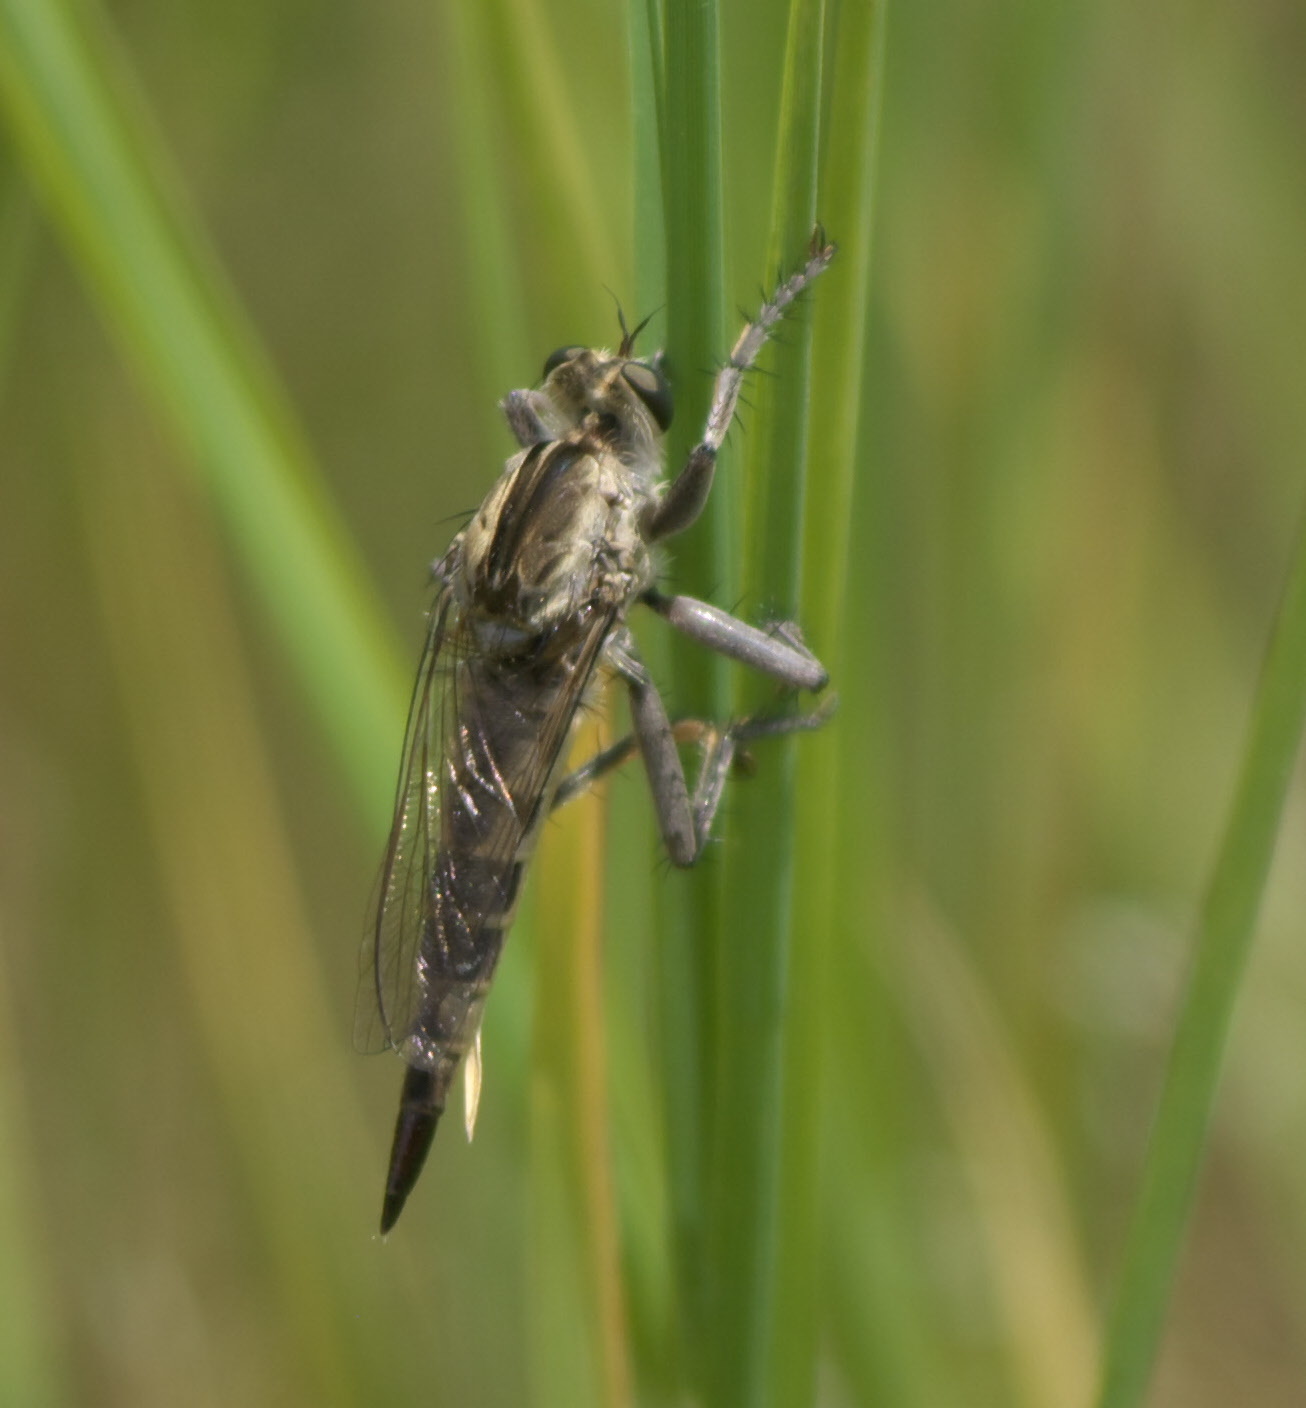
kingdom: Animalia
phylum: Arthropoda
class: Insecta
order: Diptera
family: Asilidae
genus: Triorla
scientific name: Triorla interrupta
